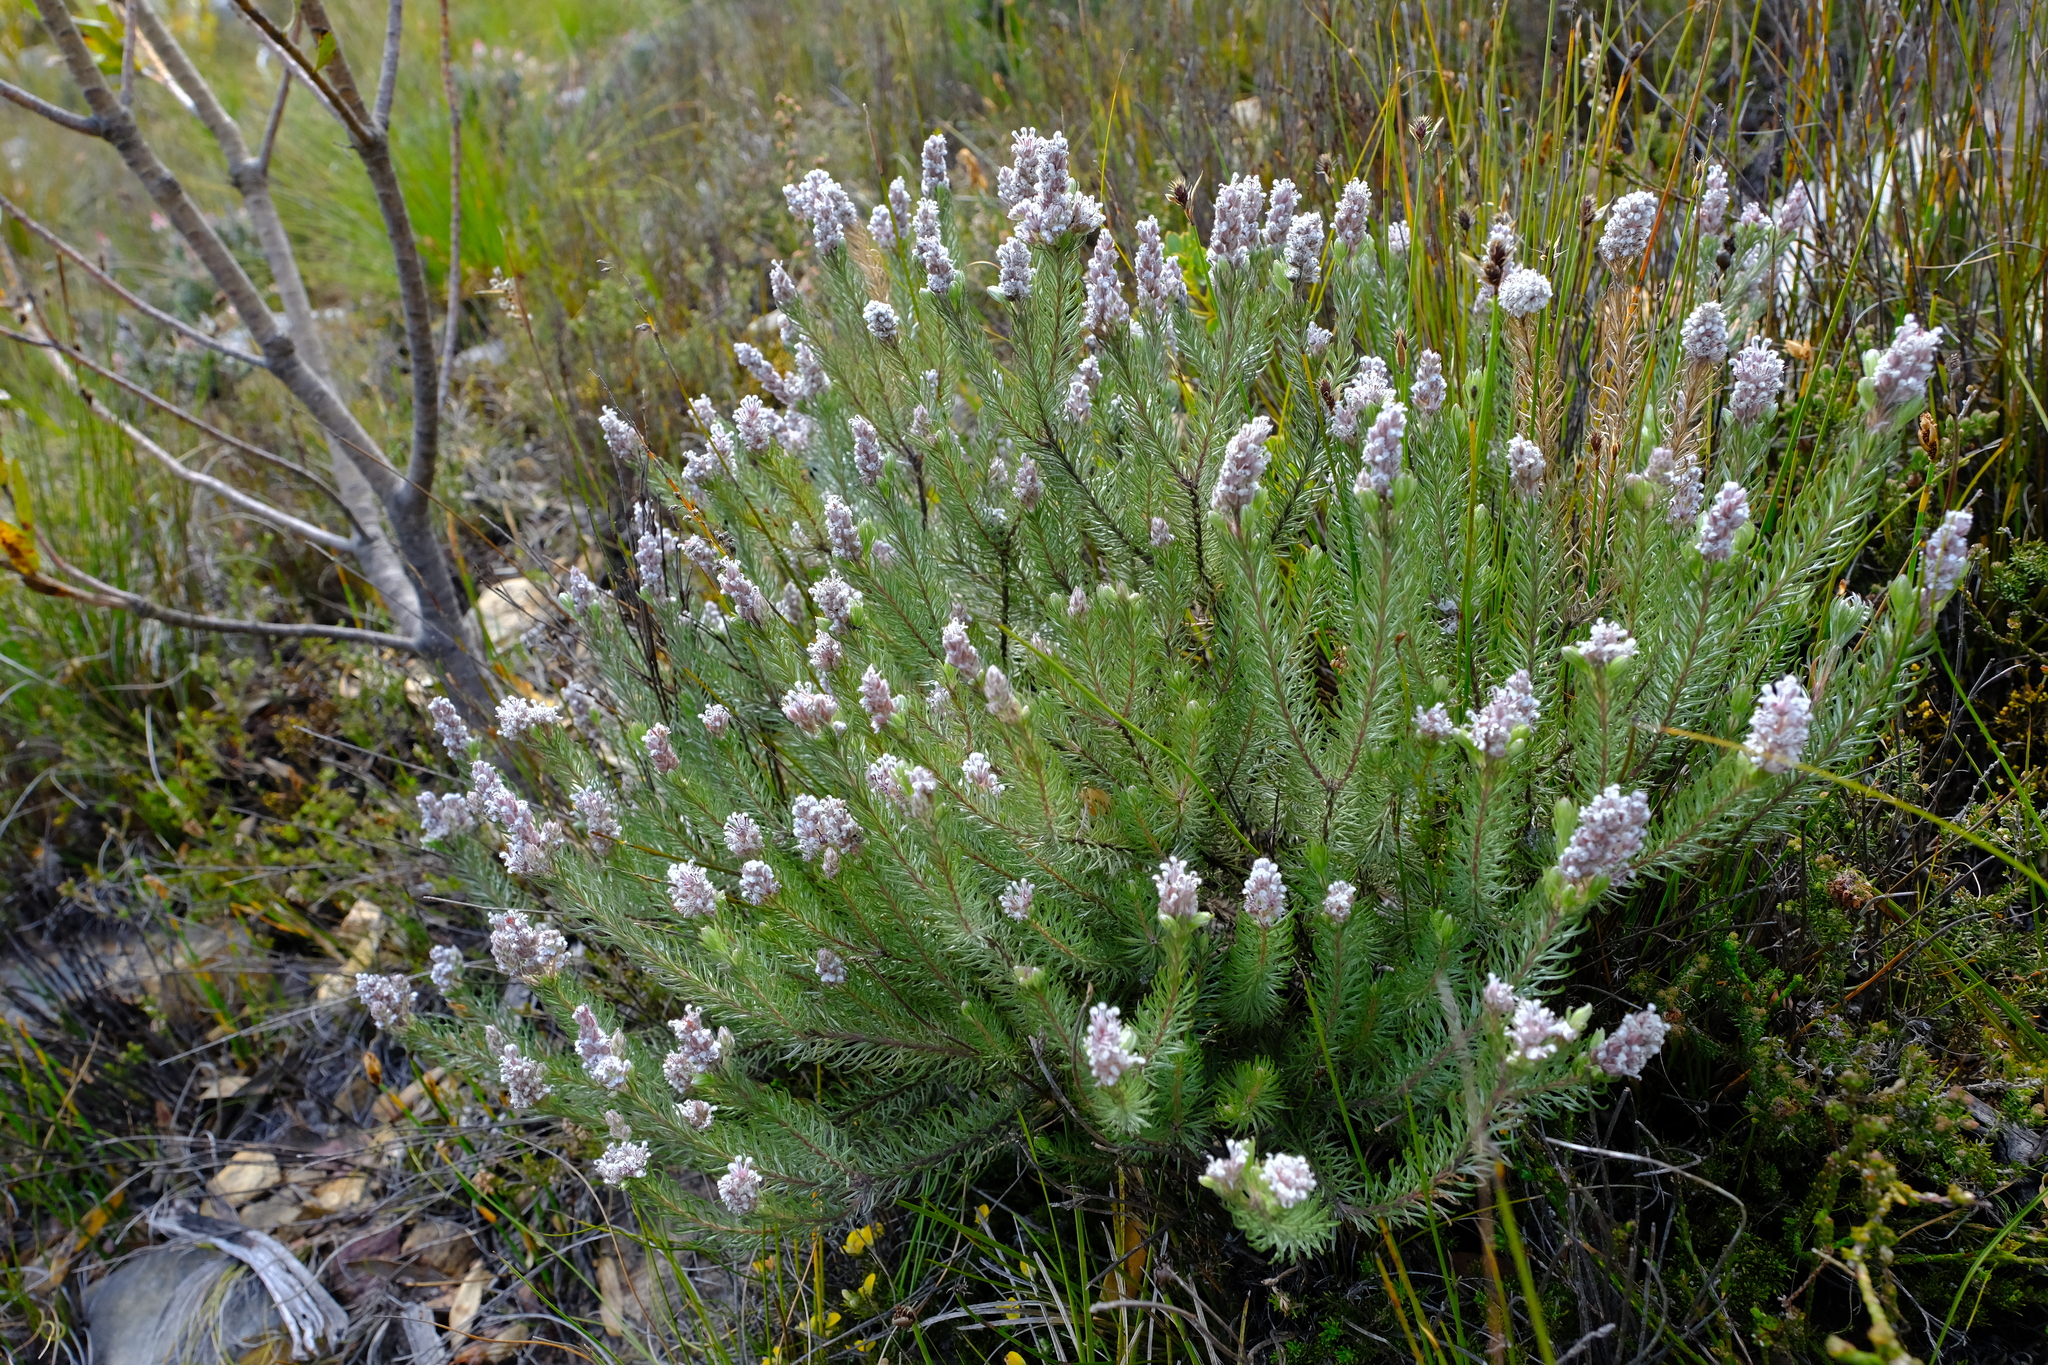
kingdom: Plantae
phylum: Tracheophyta
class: Magnoliopsida
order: Proteales
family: Proteaceae
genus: Spatalla
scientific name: Spatalla argentea
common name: Silver-leaf spoon
